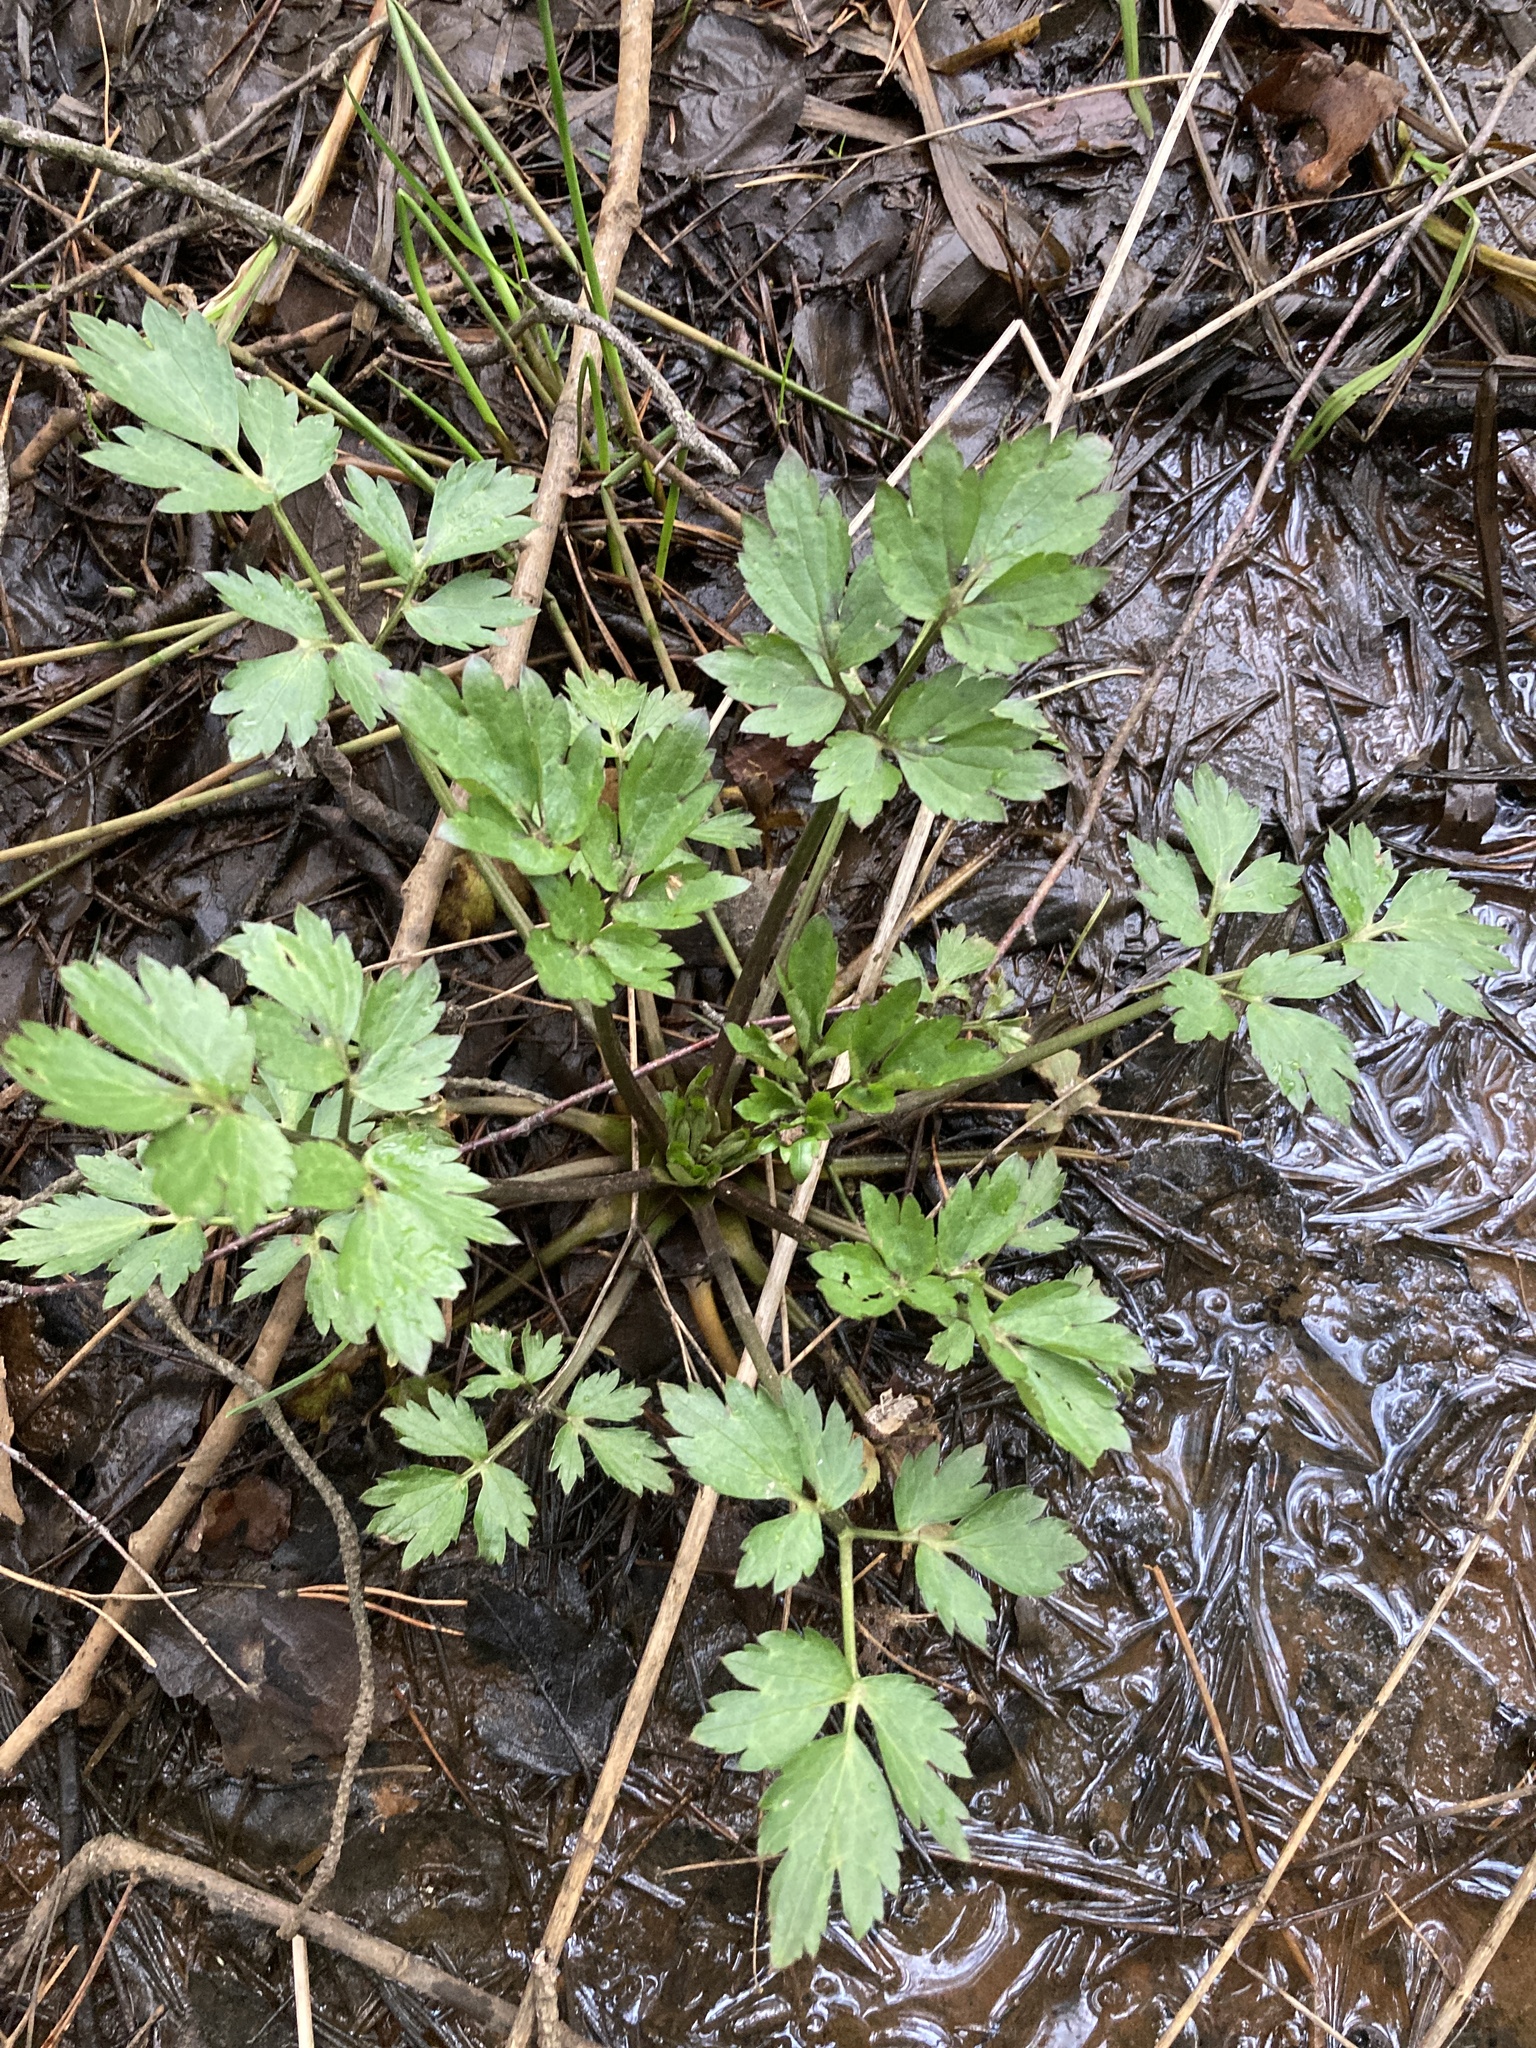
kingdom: Plantae
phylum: Tracheophyta
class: Magnoliopsida
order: Ranunculales
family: Ranunculaceae
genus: Ranunculus
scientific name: Ranunculus repens
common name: Creeping buttercup
